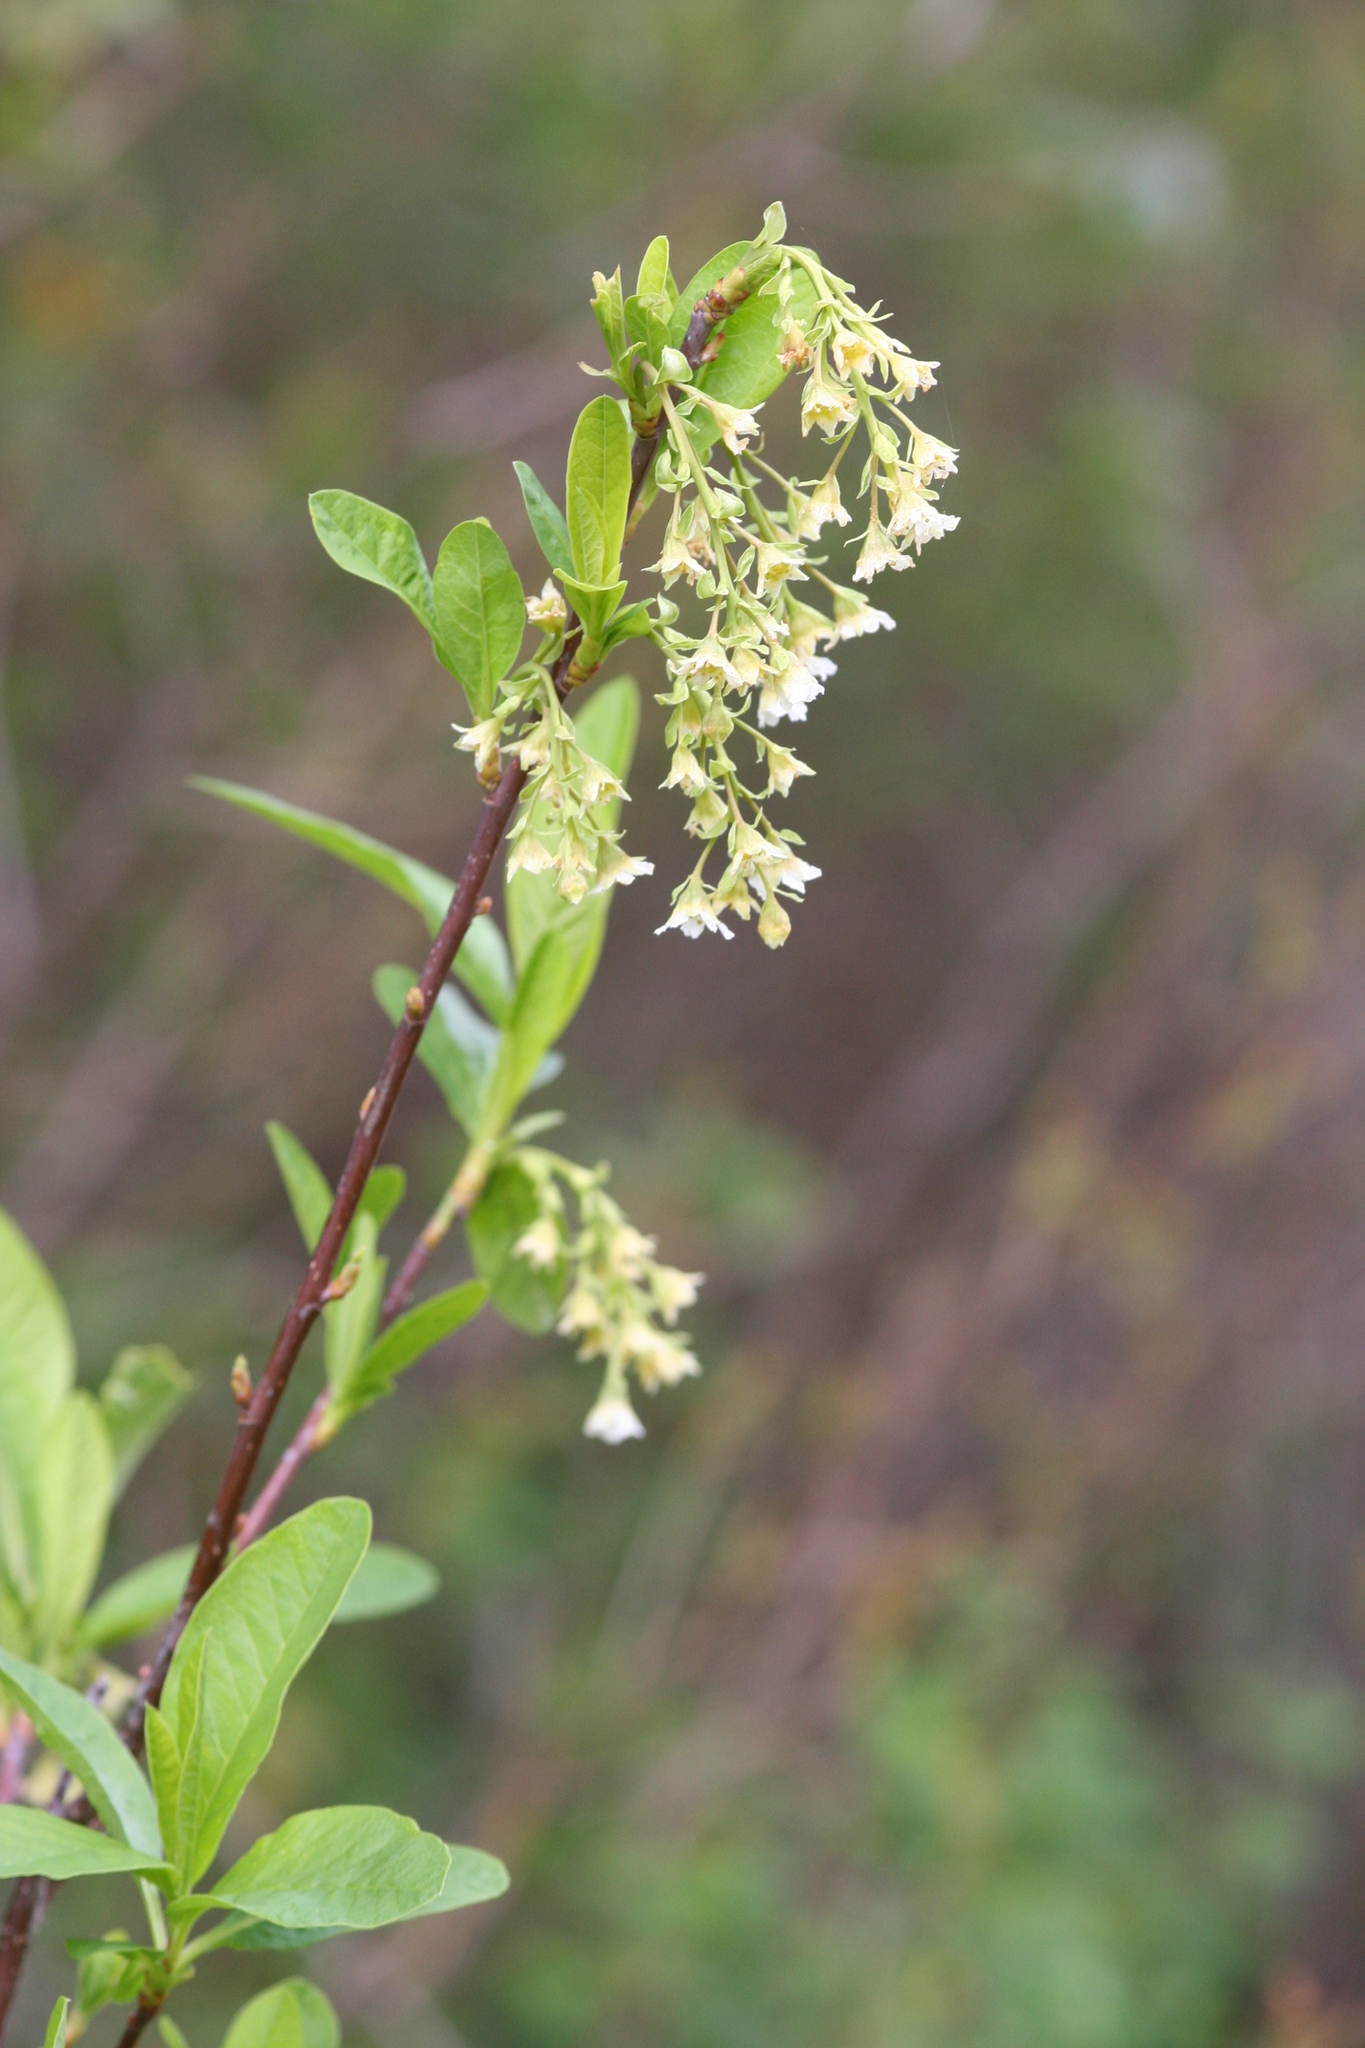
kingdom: Plantae
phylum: Tracheophyta
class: Magnoliopsida
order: Rosales
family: Rosaceae
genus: Oemleria
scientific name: Oemleria cerasiformis
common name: Osoberry
